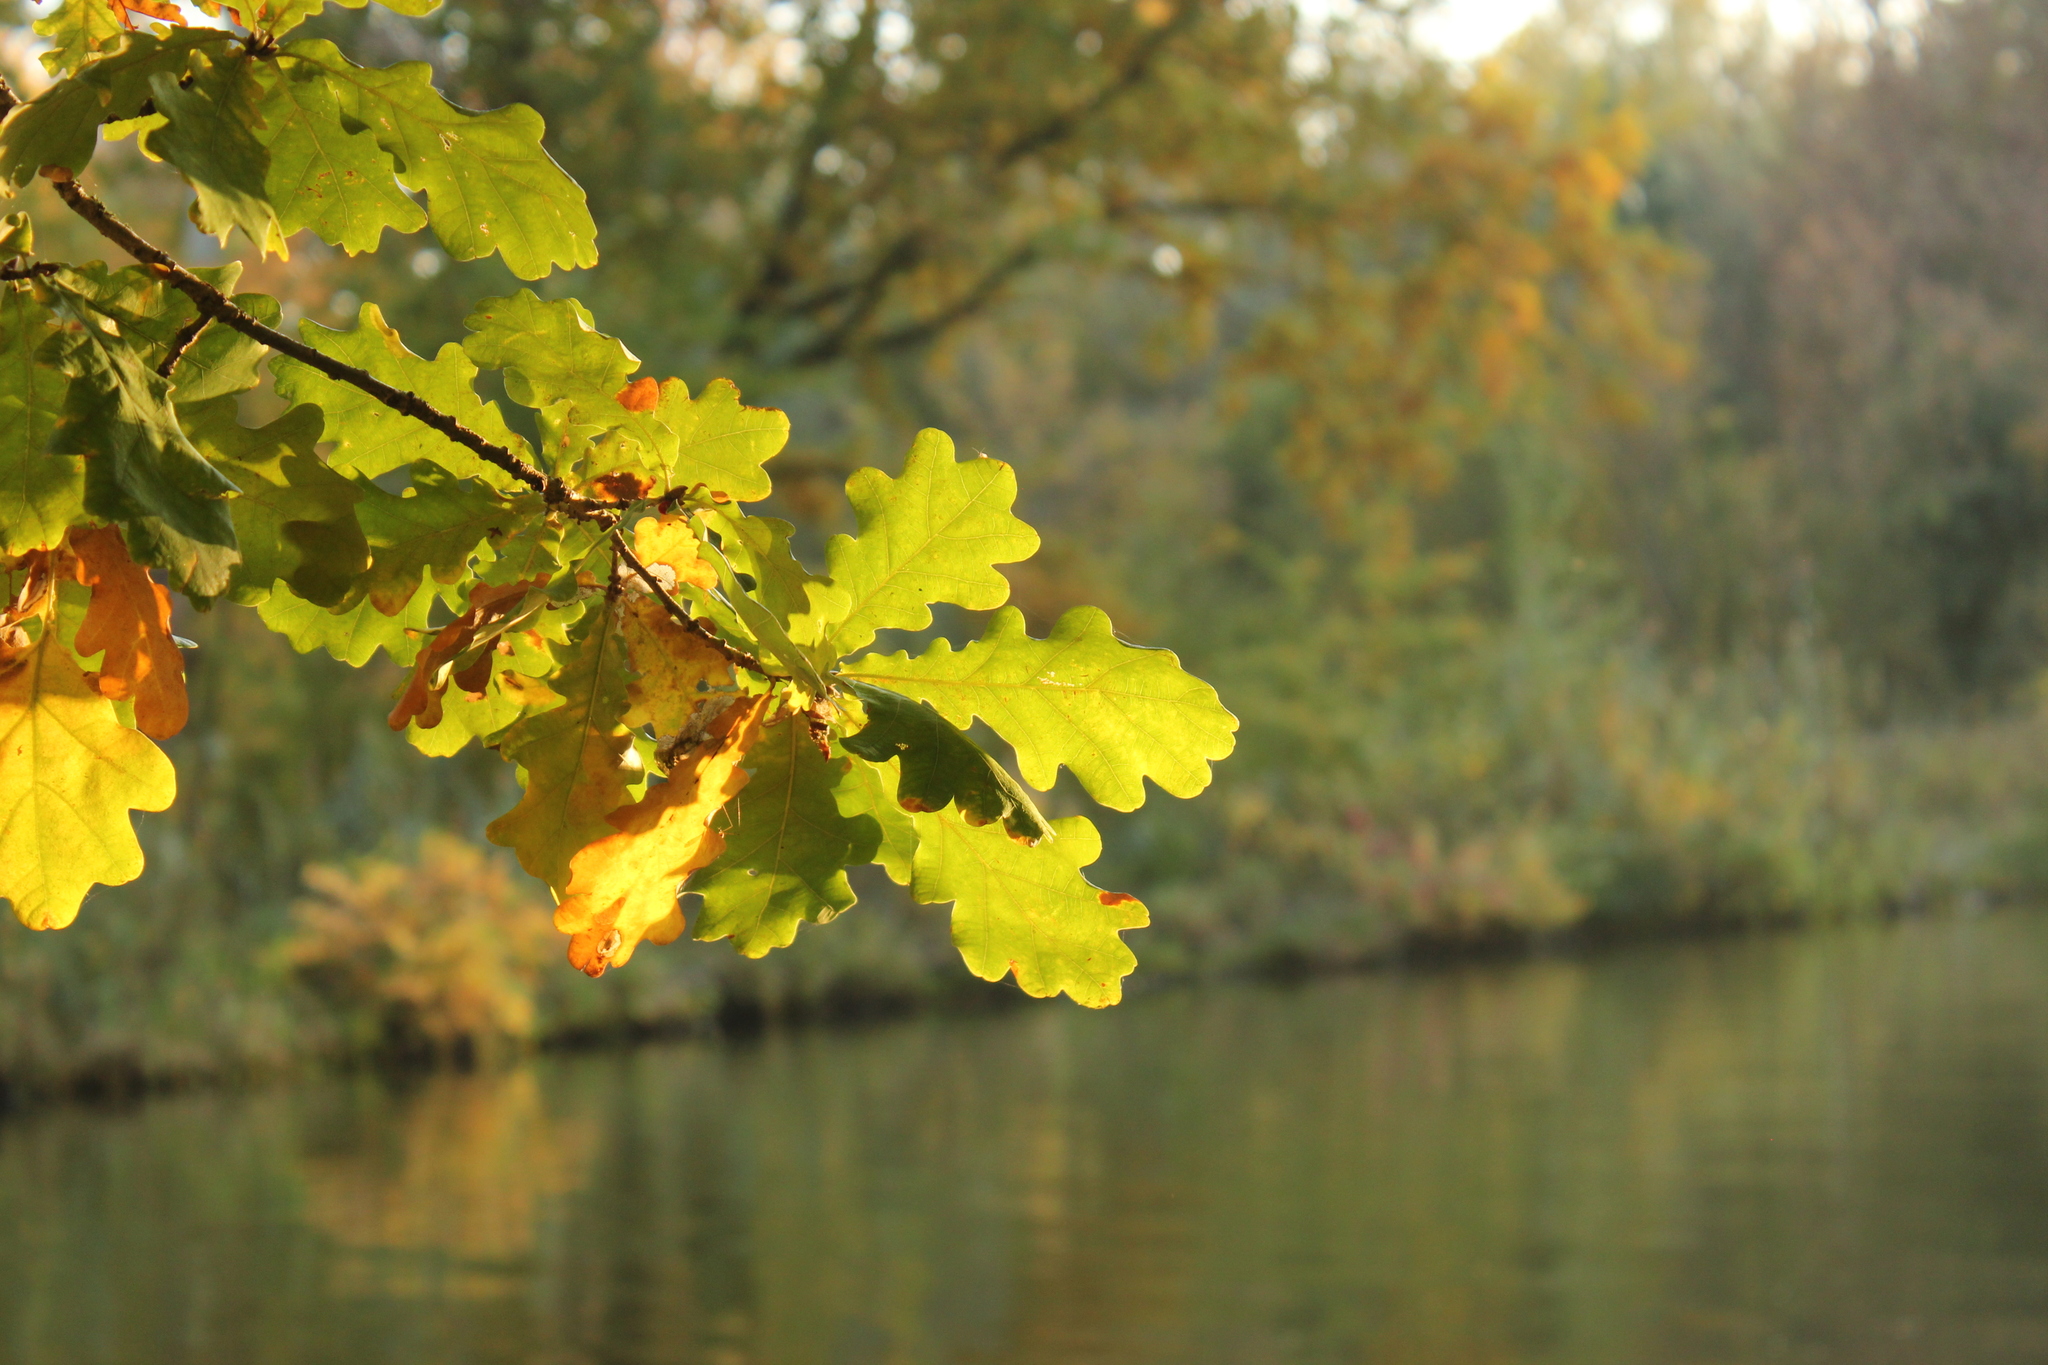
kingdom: Plantae
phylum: Tracheophyta
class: Magnoliopsida
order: Fagales
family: Fagaceae
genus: Quercus
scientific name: Quercus robur
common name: Pedunculate oak
